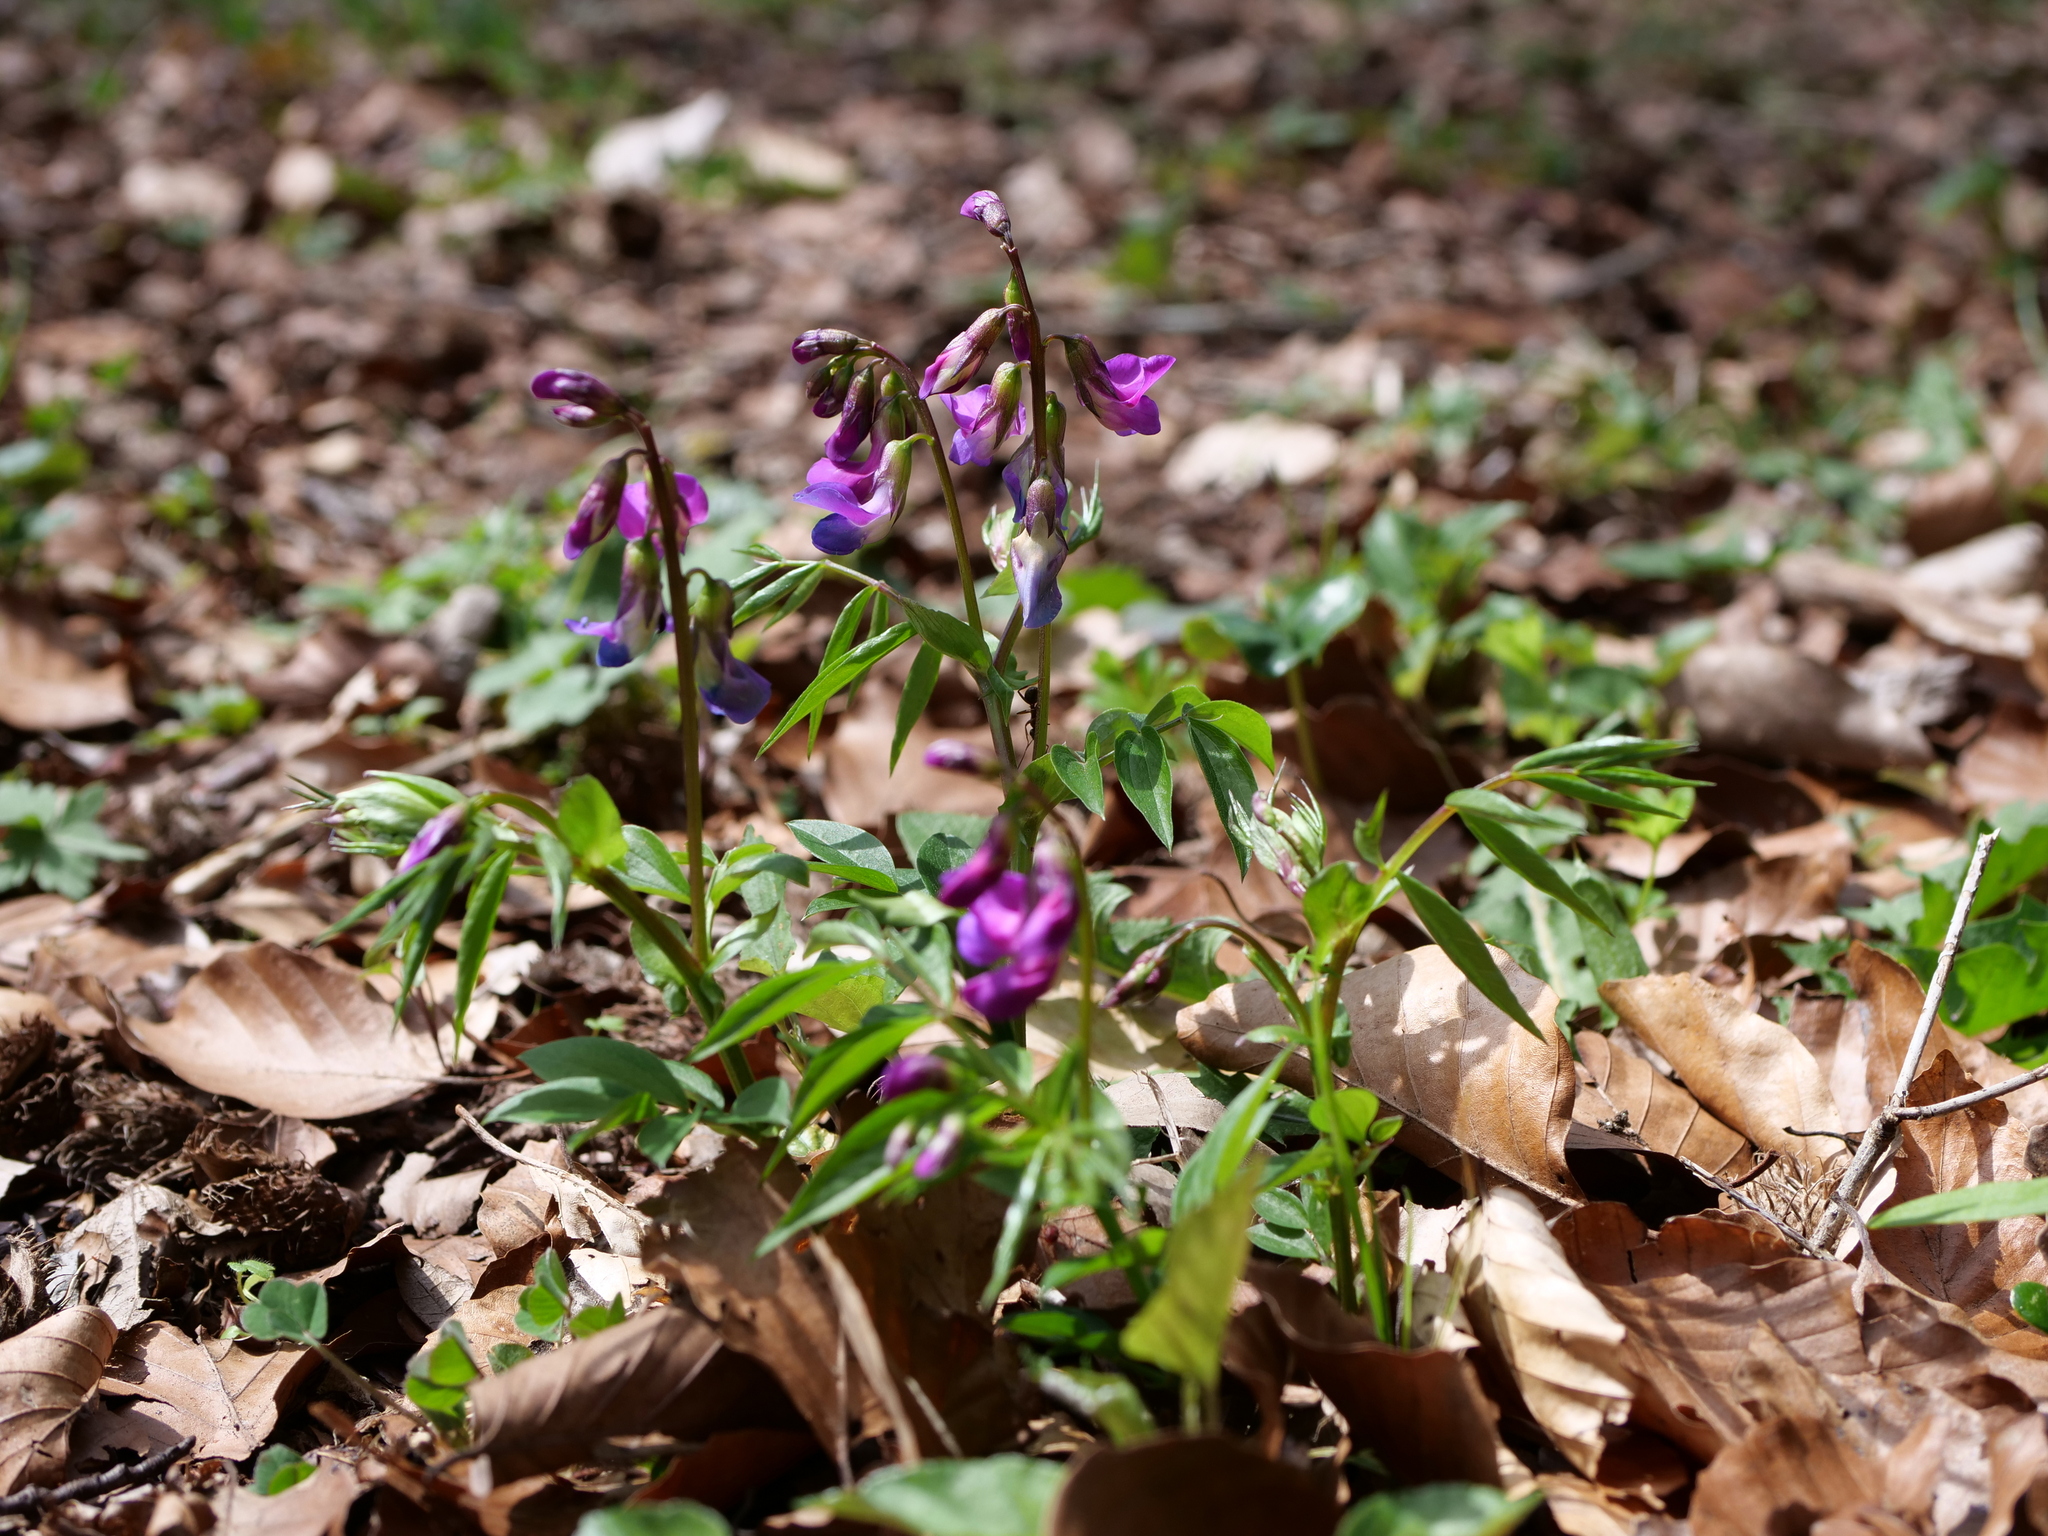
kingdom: Plantae
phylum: Tracheophyta
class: Magnoliopsida
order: Fabales
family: Fabaceae
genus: Lathyrus
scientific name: Lathyrus vernus
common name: Spring pea
